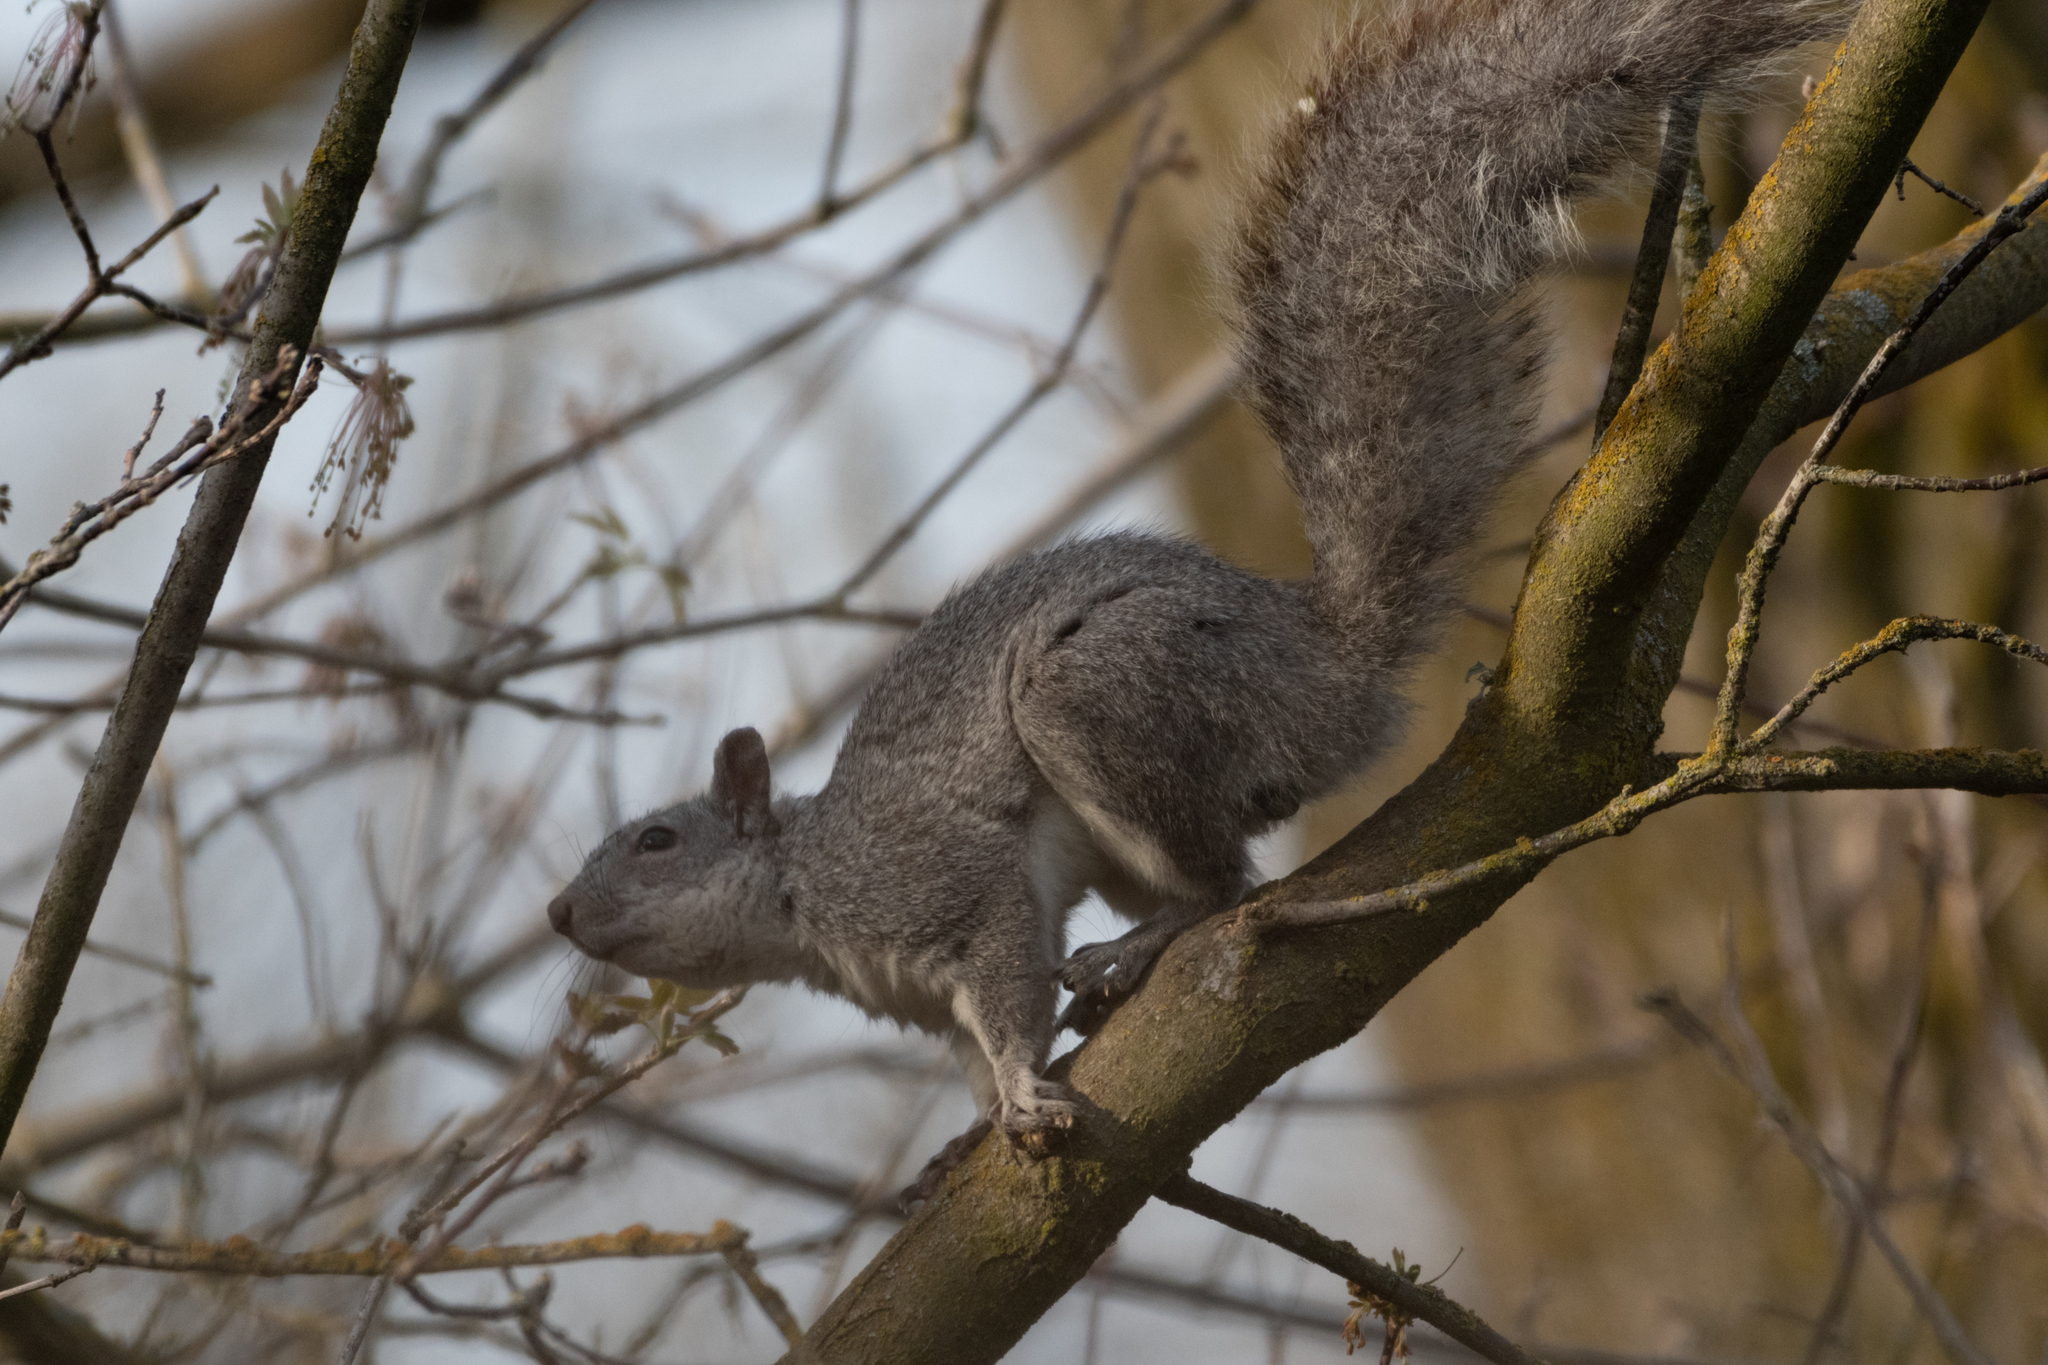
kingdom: Animalia
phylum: Chordata
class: Mammalia
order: Rodentia
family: Sciuridae
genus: Sciurus
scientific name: Sciurus griseus
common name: Western gray squirrel
